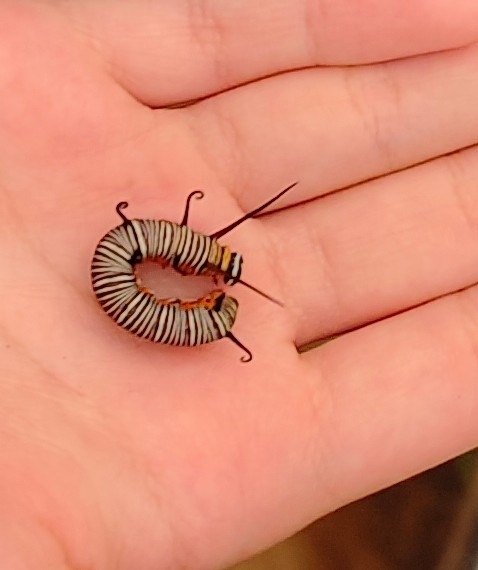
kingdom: Animalia
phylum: Arthropoda
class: Insecta
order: Lepidoptera
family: Nymphalidae
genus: Euploea
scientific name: Euploea core
